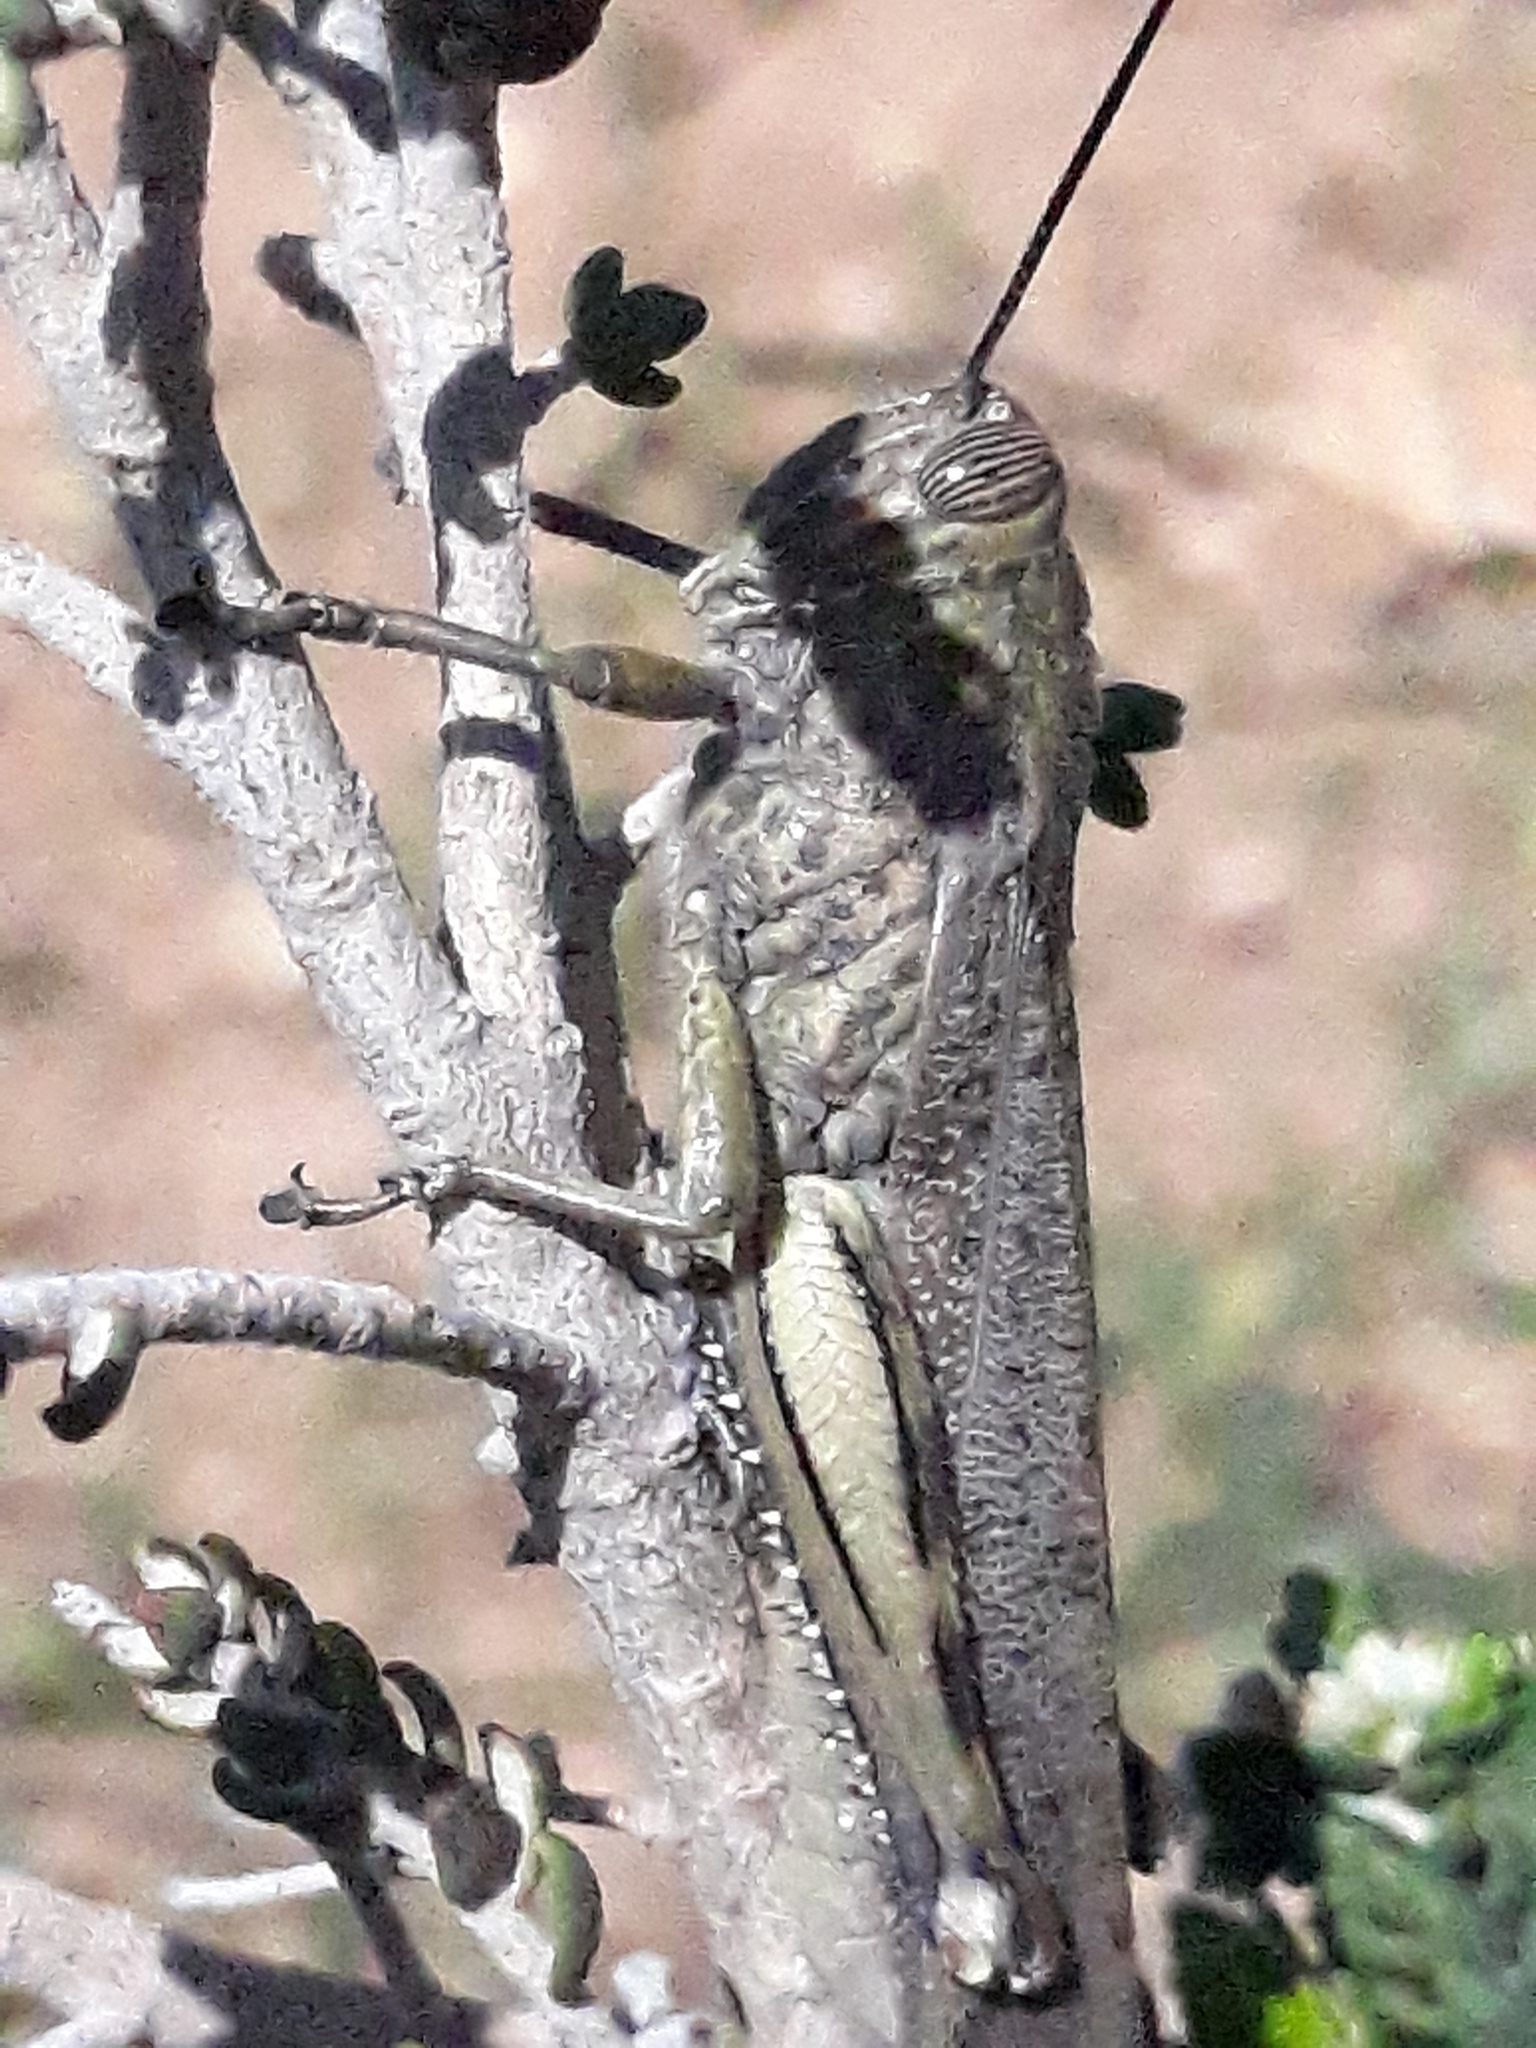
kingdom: Animalia
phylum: Arthropoda
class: Insecta
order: Orthoptera
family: Acrididae
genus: Anacridium
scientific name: Anacridium aegyptium
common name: Egyptian grasshopper
